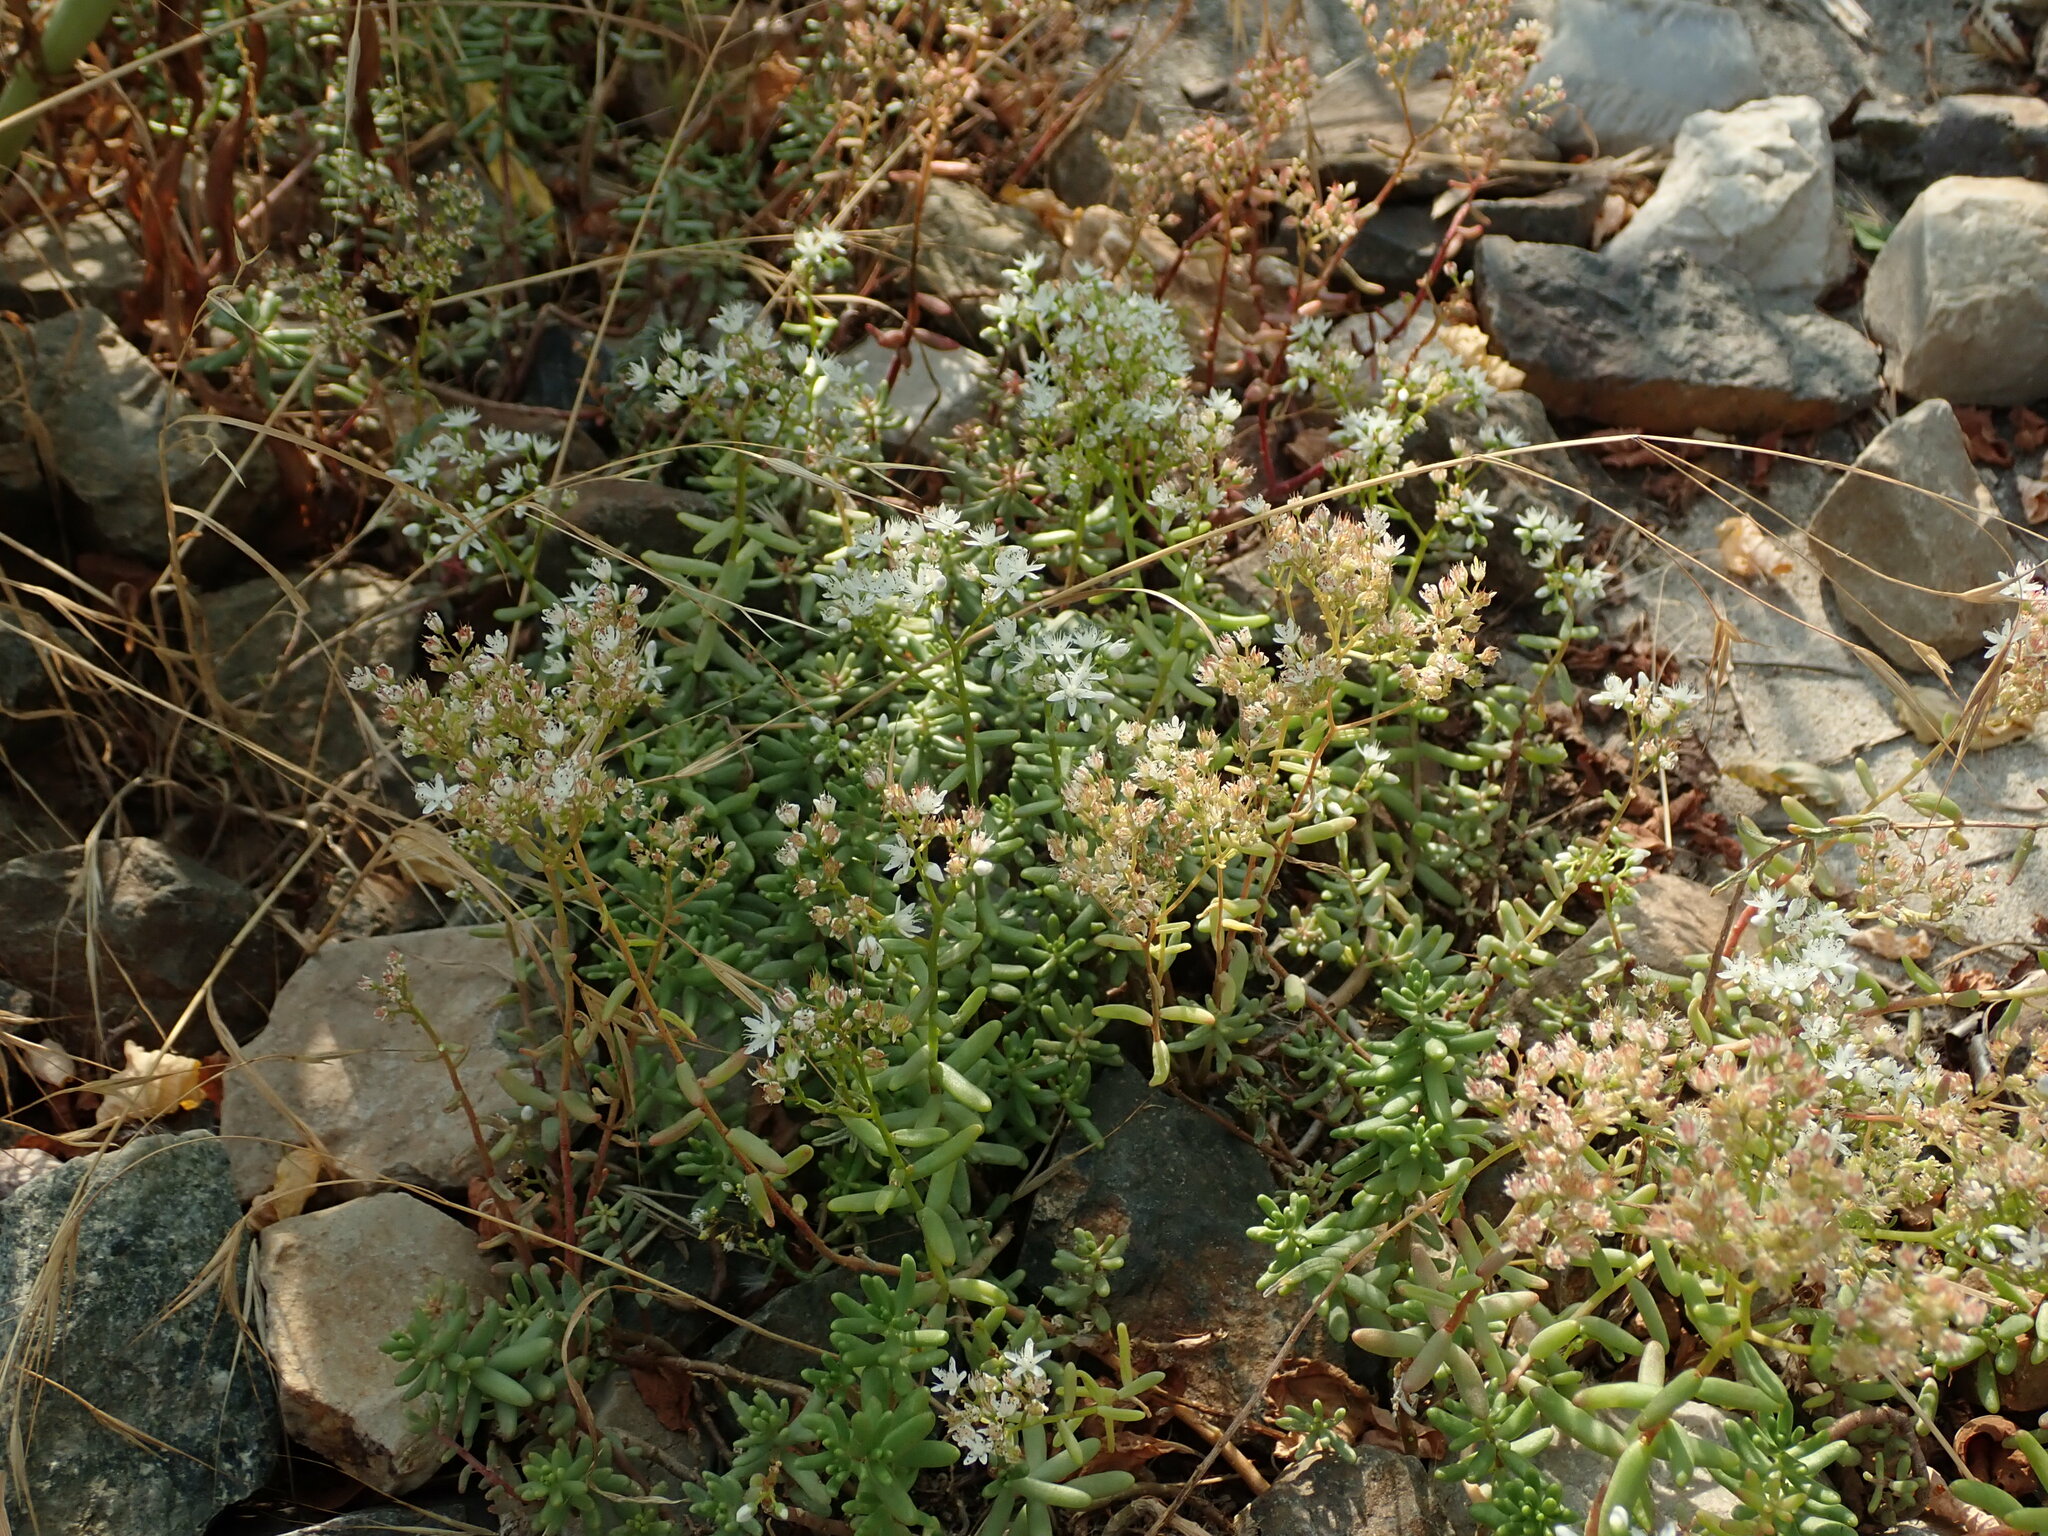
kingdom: Plantae
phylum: Tracheophyta
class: Magnoliopsida
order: Saxifragales
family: Crassulaceae
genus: Sedum
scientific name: Sedum album
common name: White stonecrop
